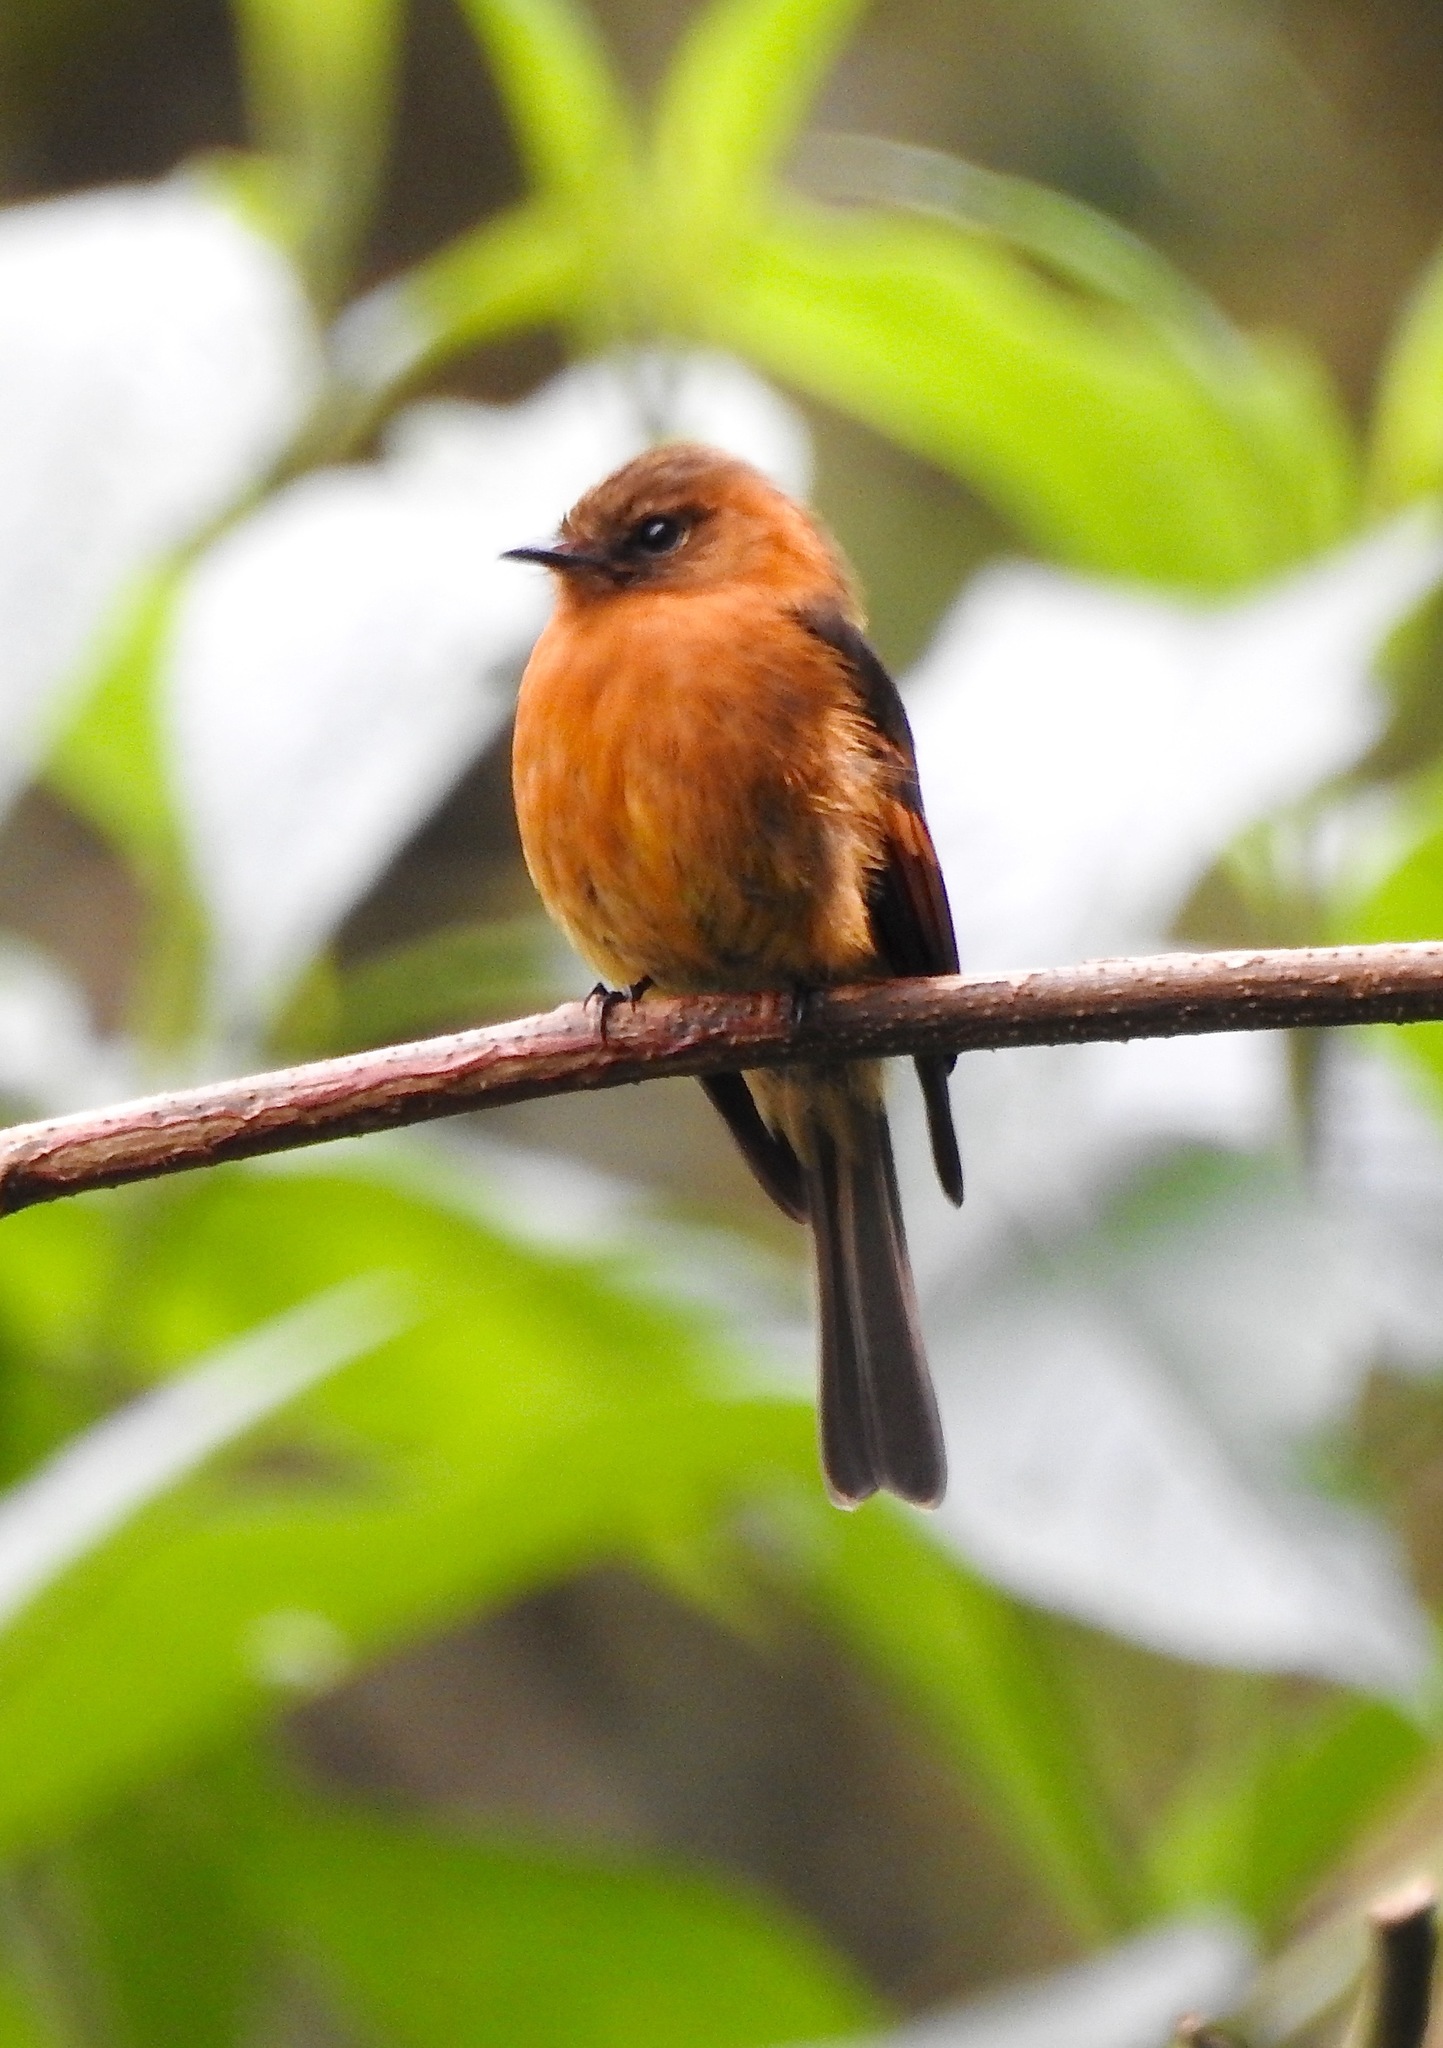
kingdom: Animalia
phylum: Chordata
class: Aves
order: Passeriformes
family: Tyrannidae
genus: Pyrrhomyias
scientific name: Pyrrhomyias cinnamomeus
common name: Cinnamon flycatcher
